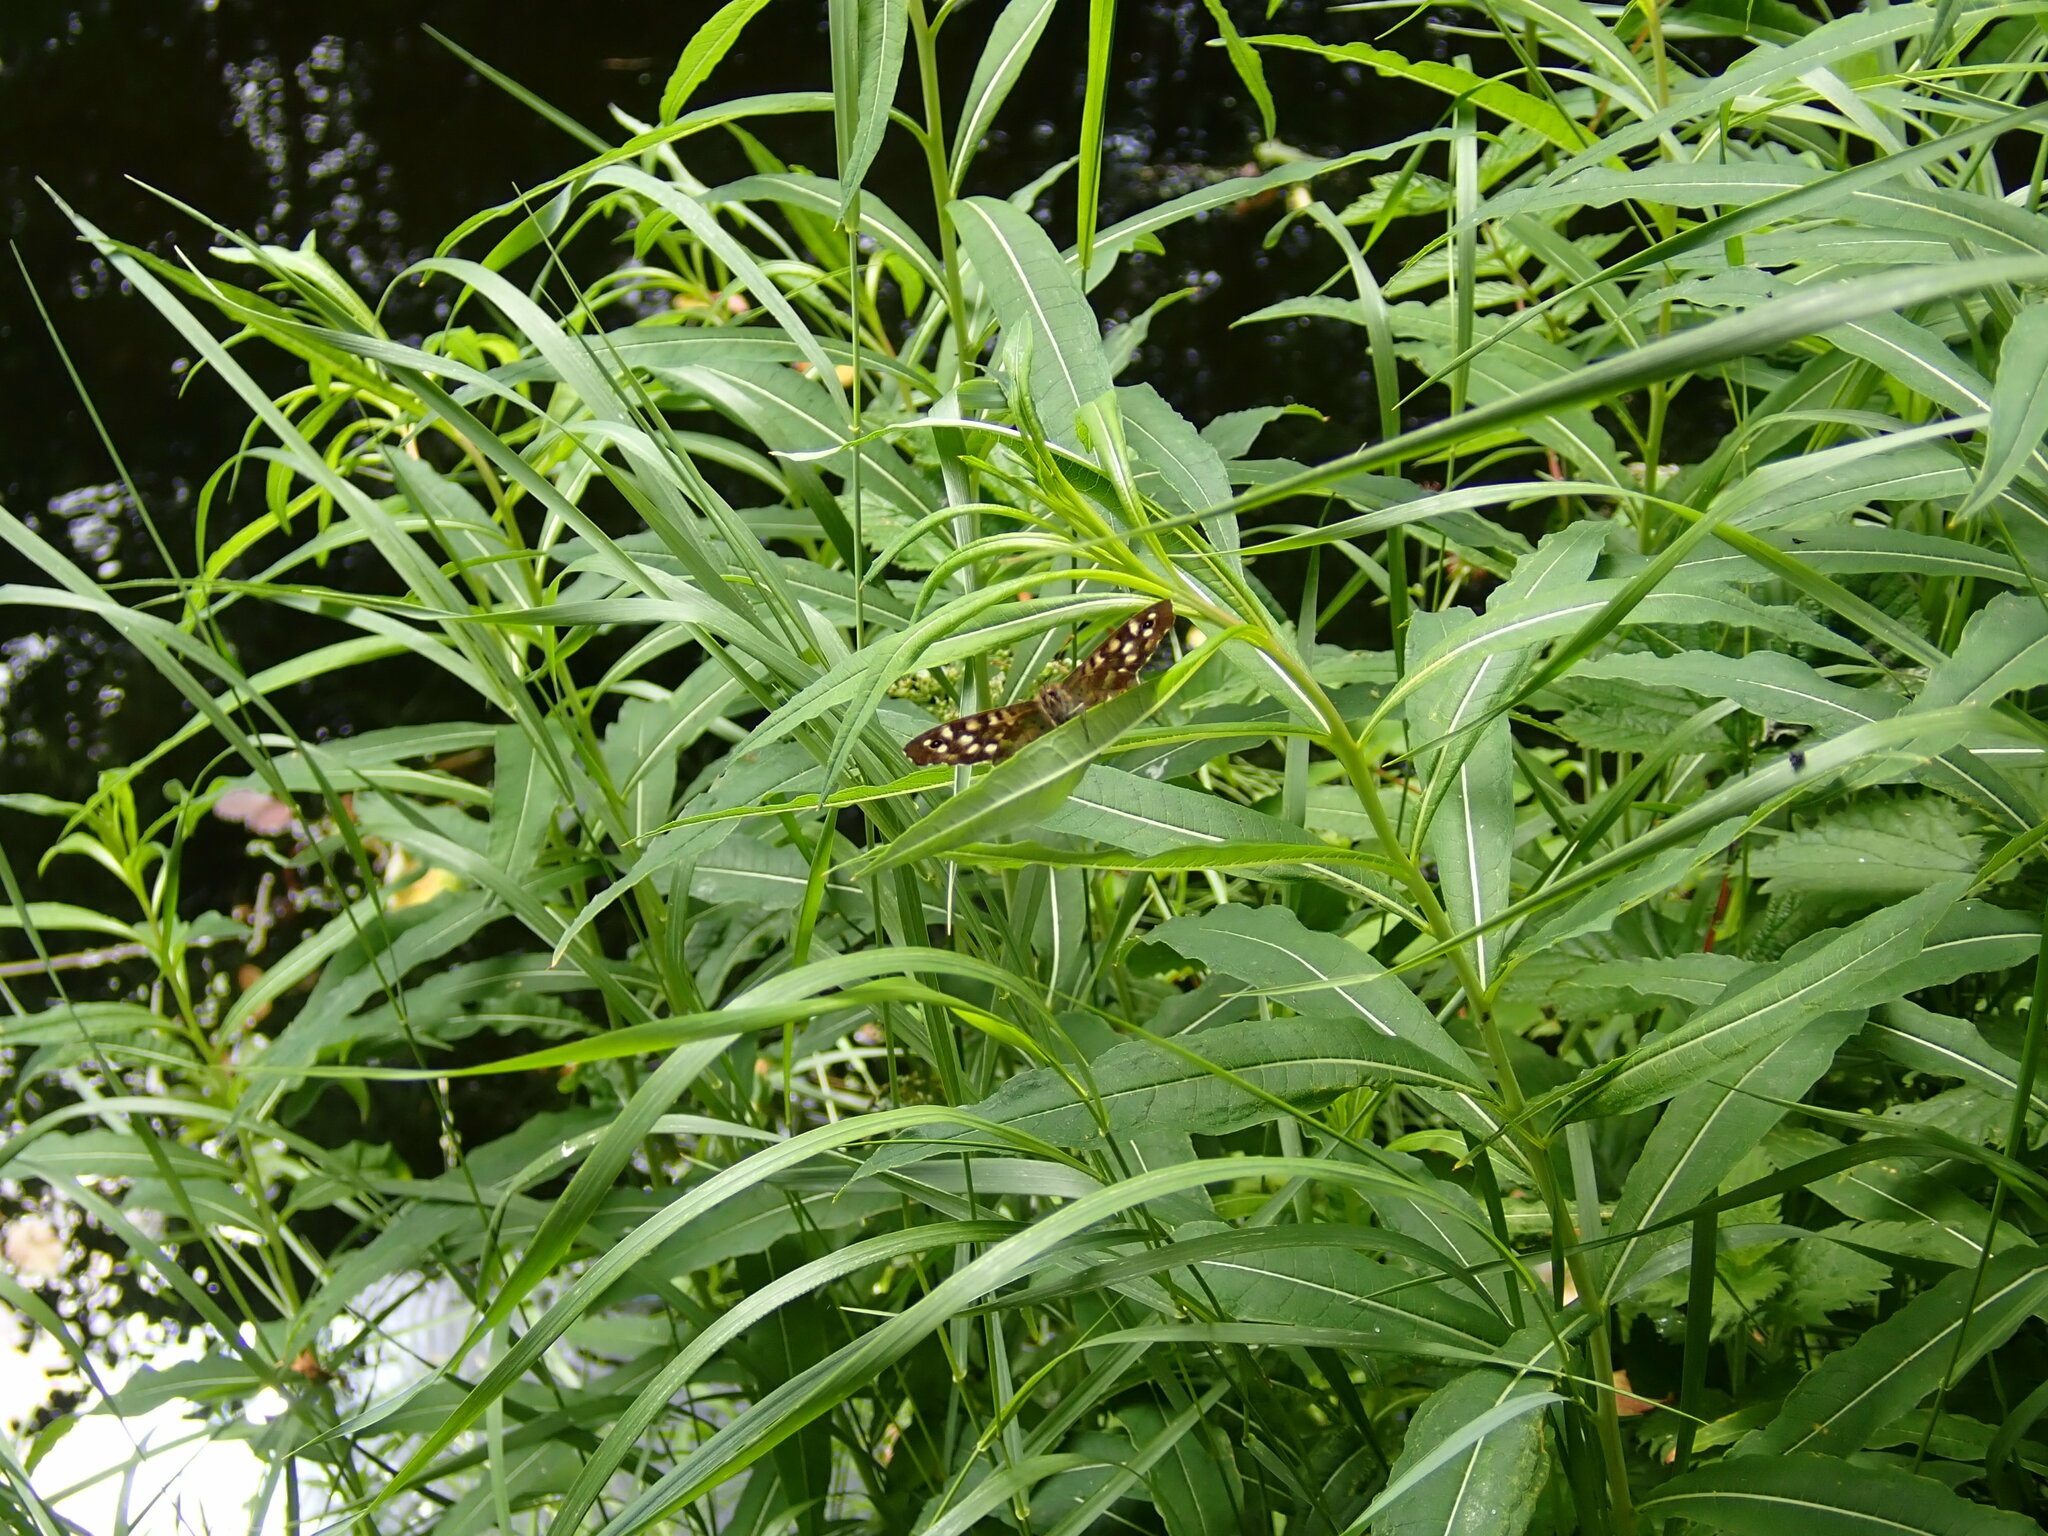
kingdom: Animalia
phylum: Arthropoda
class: Insecta
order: Lepidoptera
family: Nymphalidae
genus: Pararge
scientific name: Pararge aegeria
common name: Speckled wood
